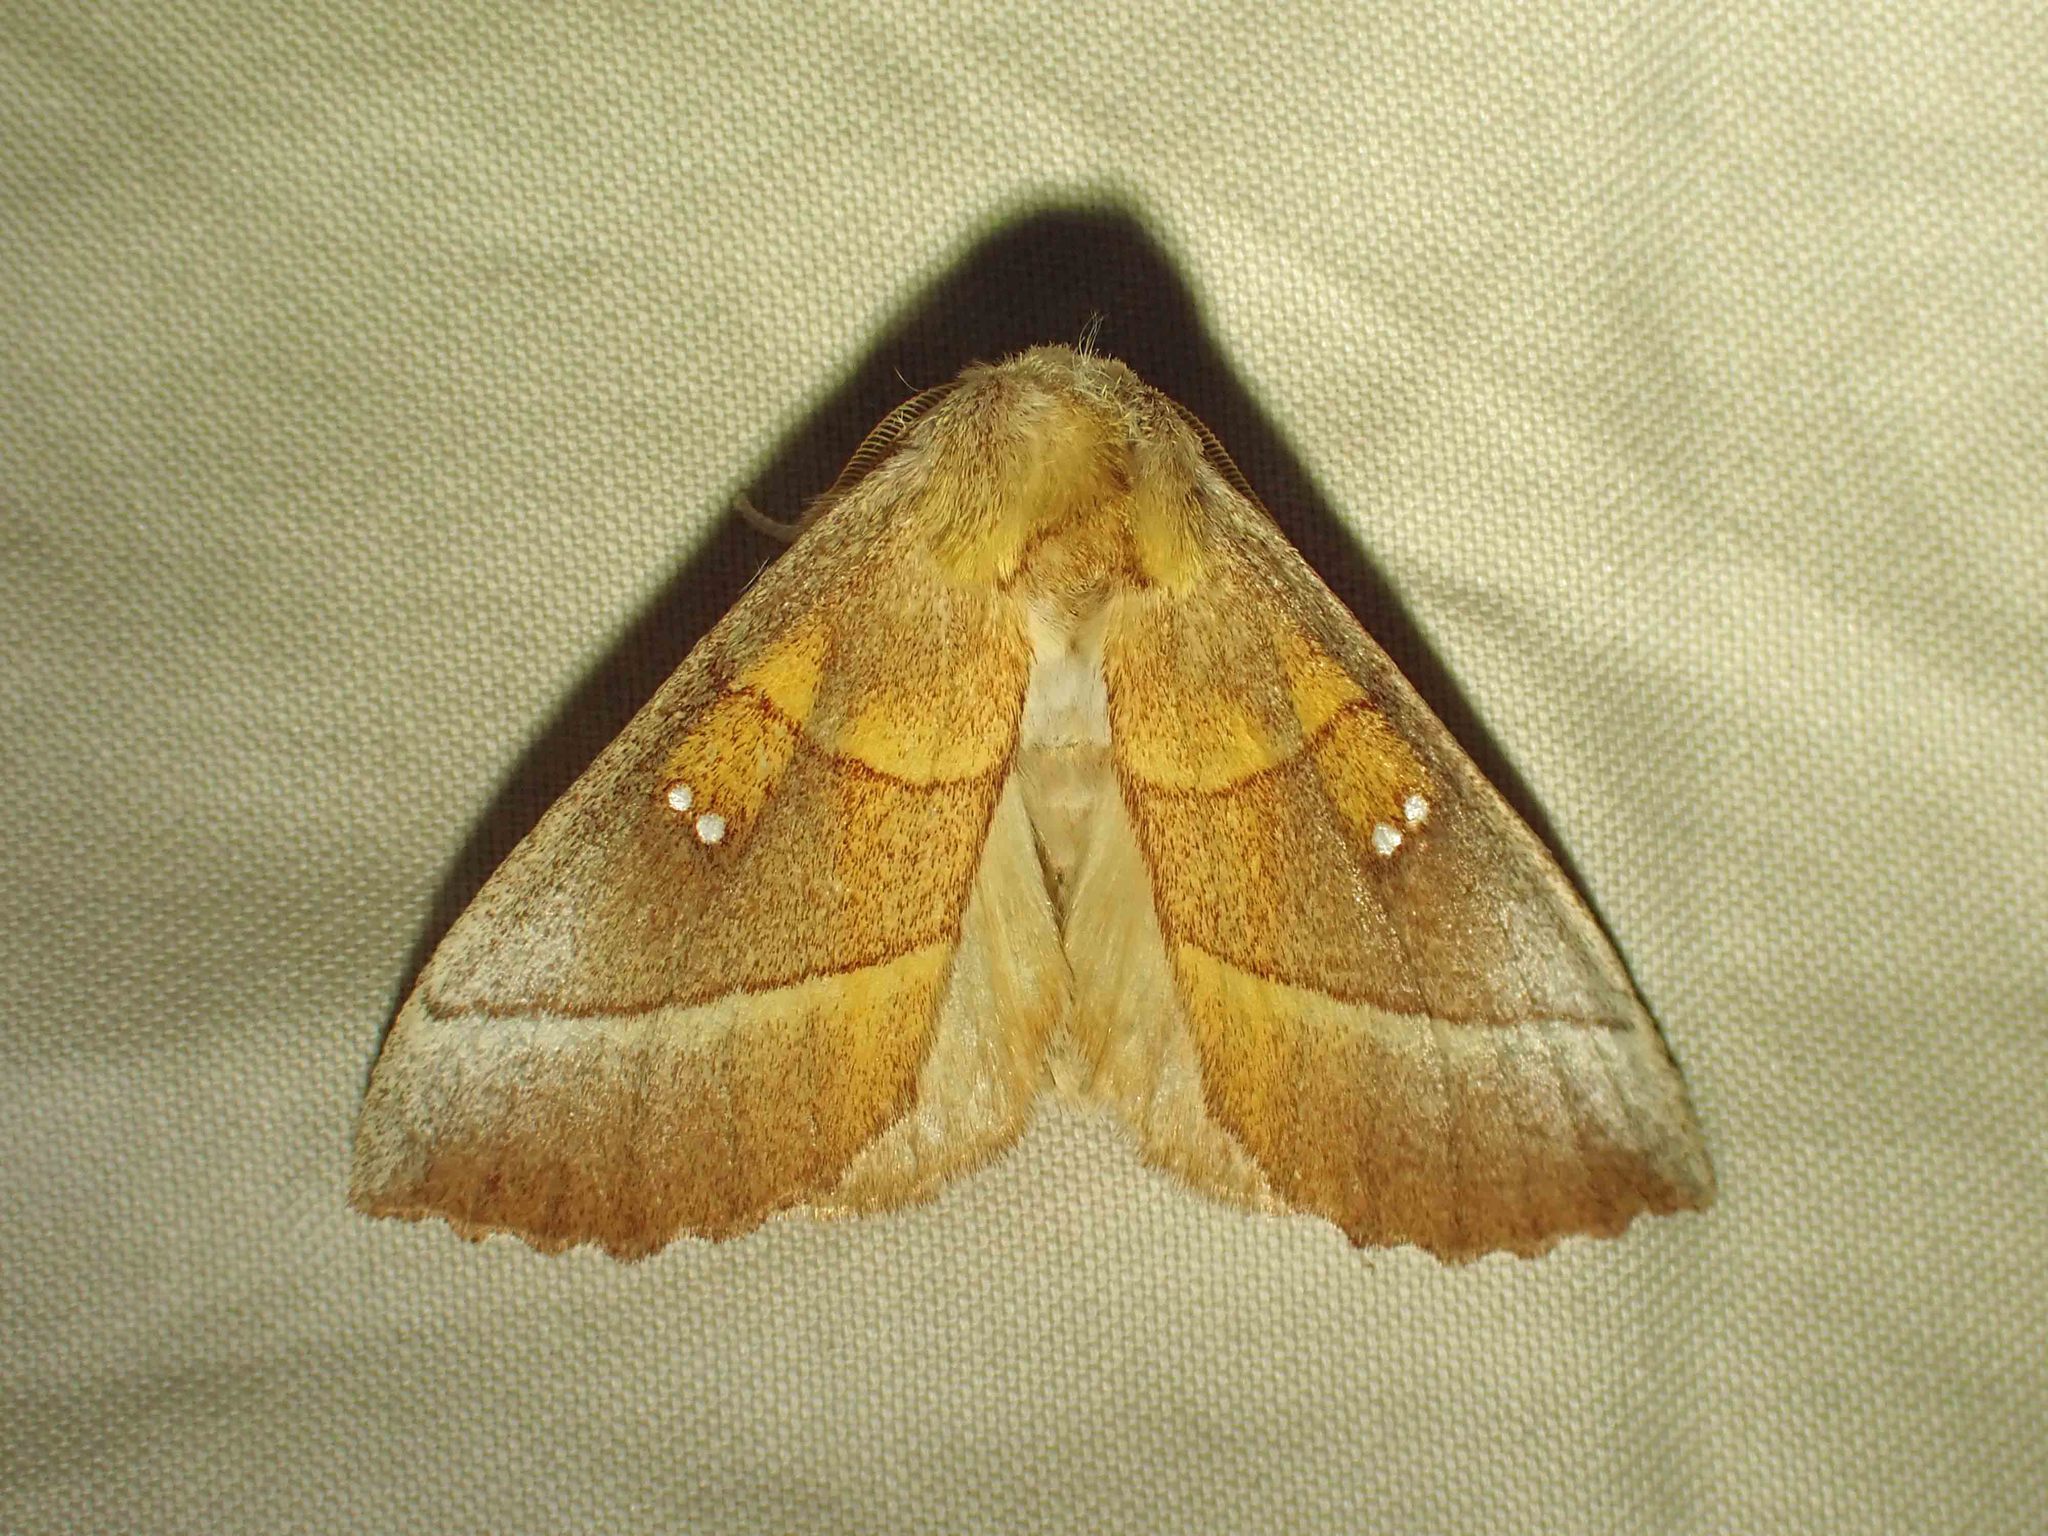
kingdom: Animalia
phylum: Arthropoda
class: Insecta
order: Lepidoptera
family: Notodontidae
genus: Nadata
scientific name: Nadata gibbosa
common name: White-dotted prominent
